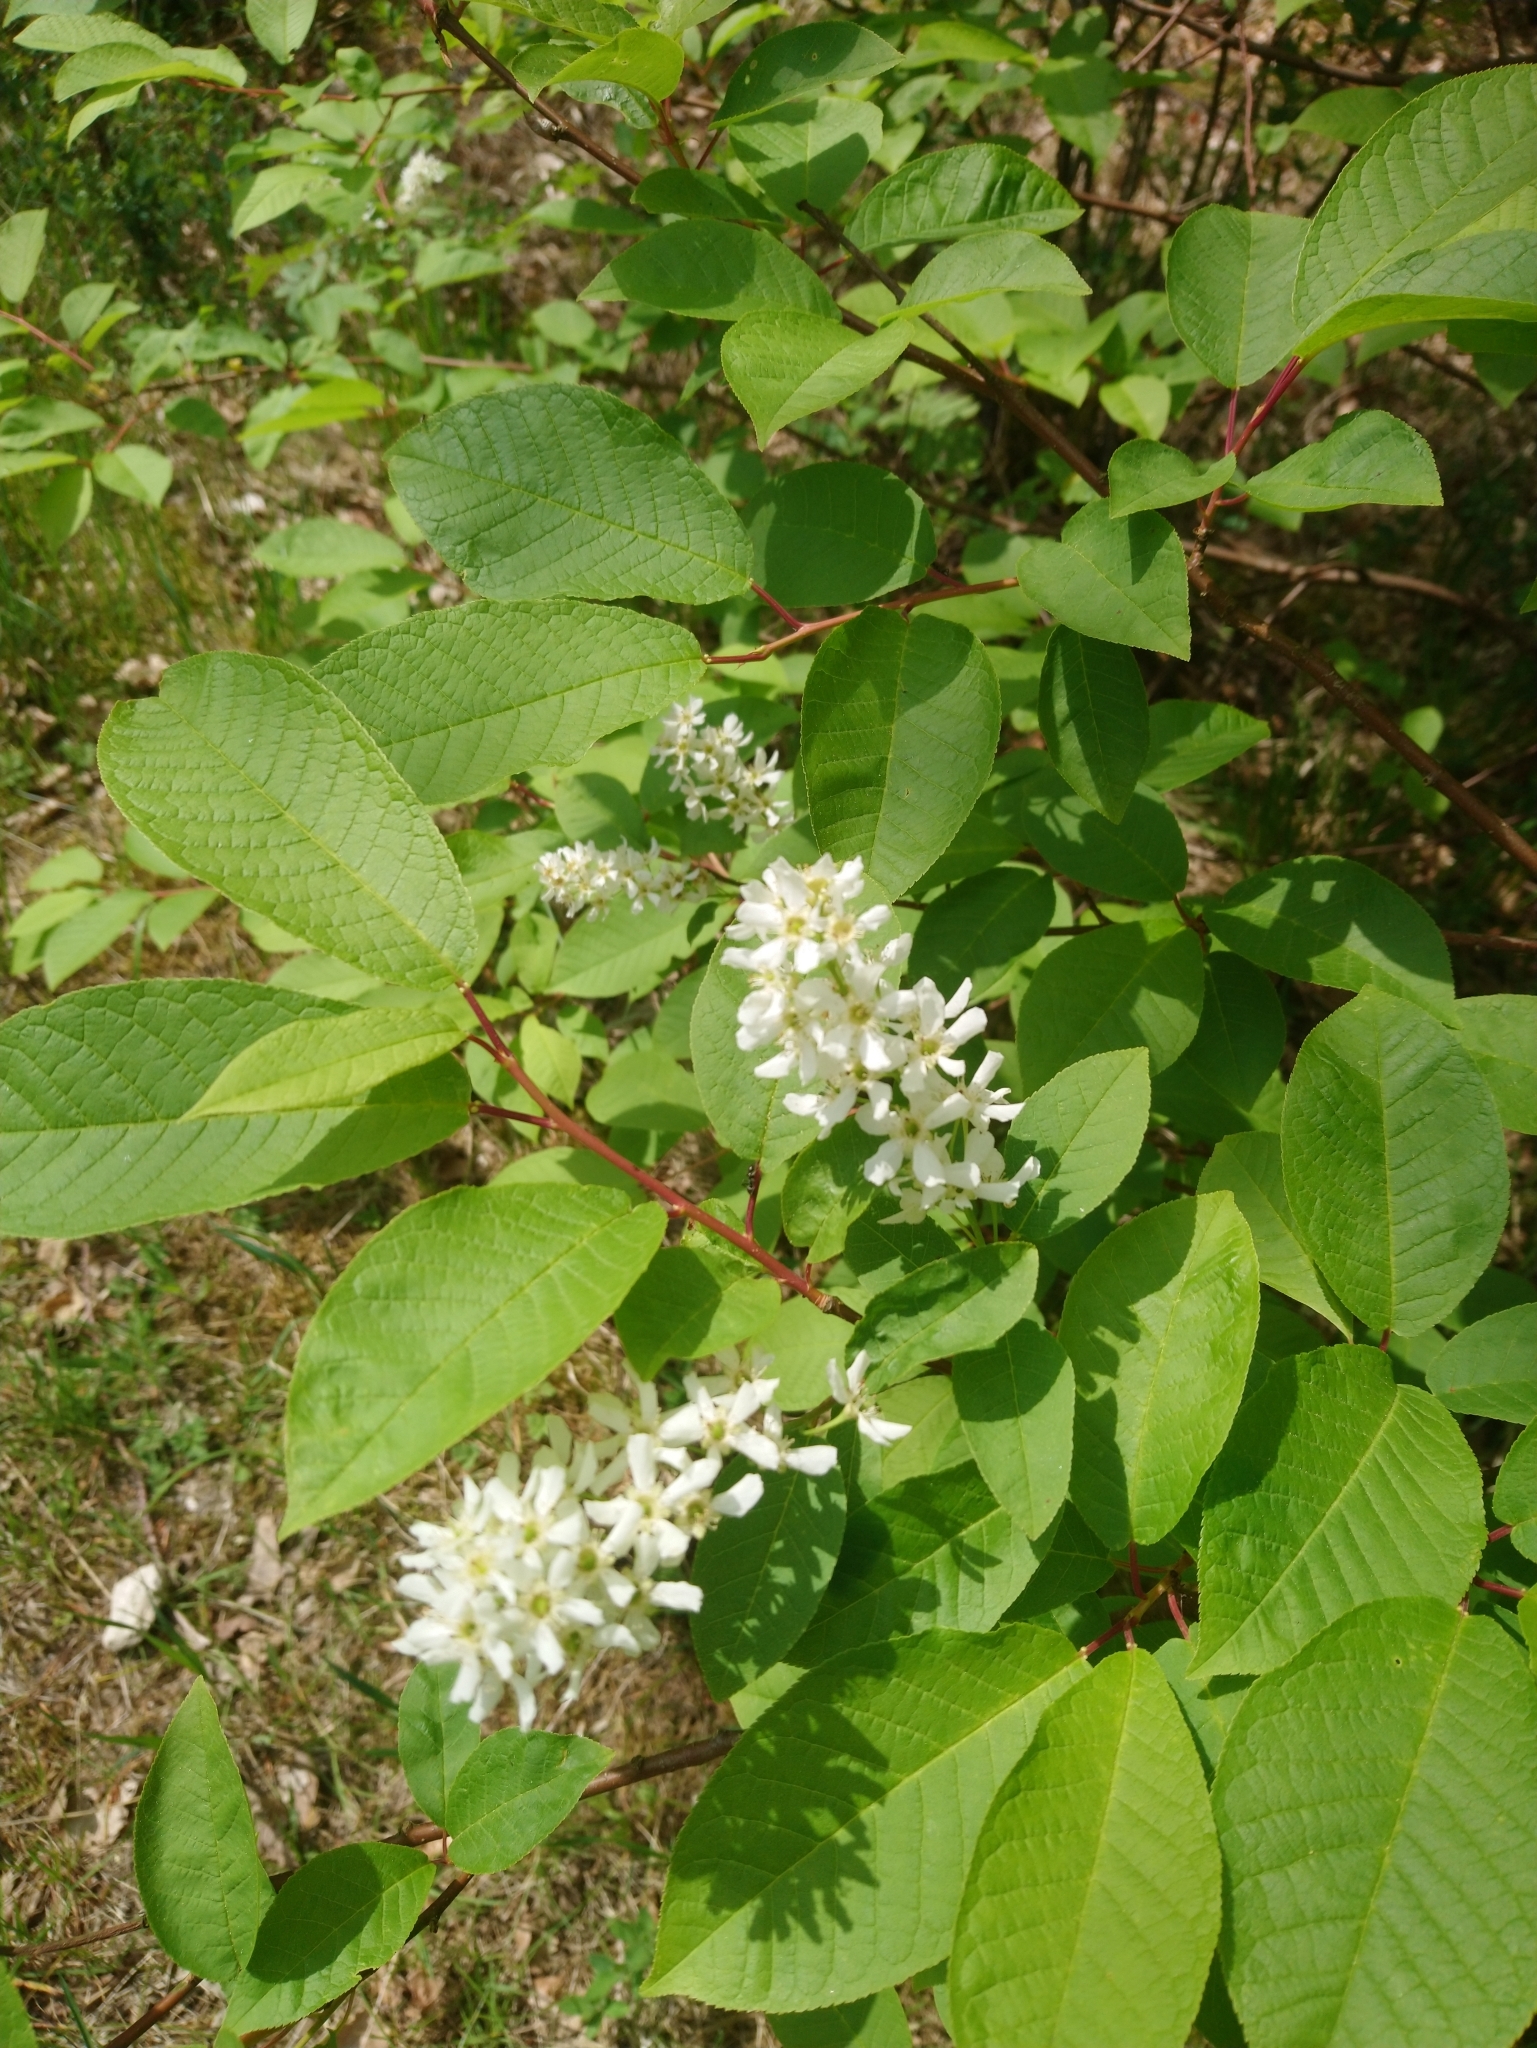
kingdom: Plantae
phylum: Tracheophyta
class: Magnoliopsida
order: Rosales
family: Rosaceae
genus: Prunus
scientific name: Prunus padus
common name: Bird cherry
